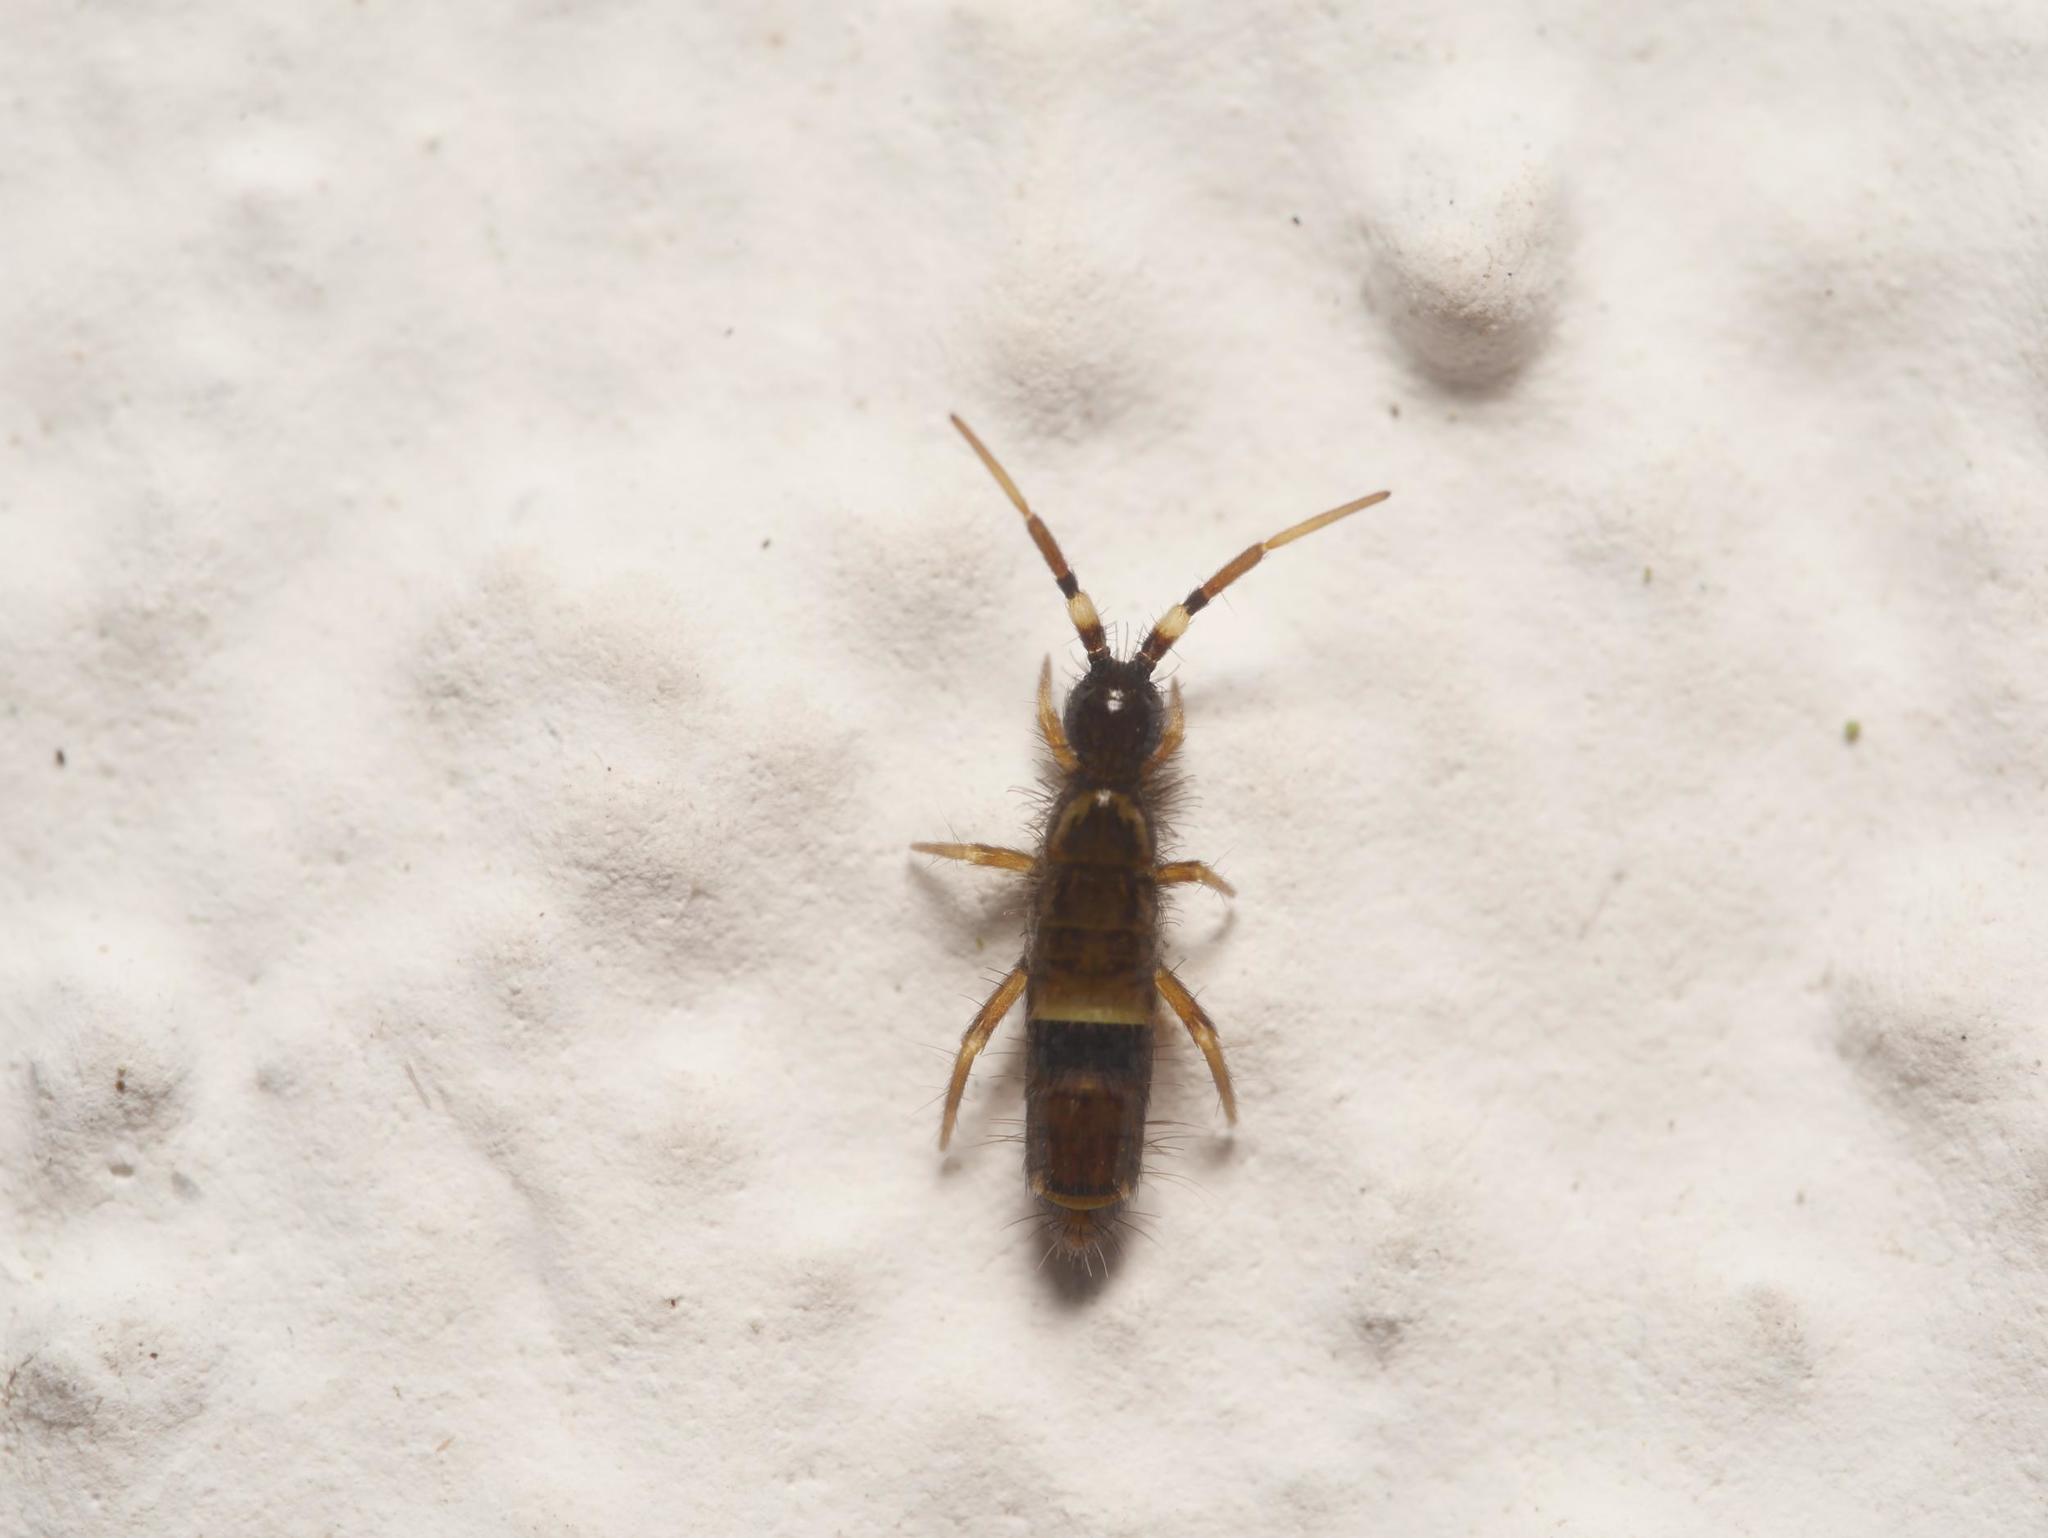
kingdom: Animalia
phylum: Arthropoda
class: Collembola
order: Entomobryomorpha
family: Orchesellidae
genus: Orchesella
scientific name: Orchesella cincta
